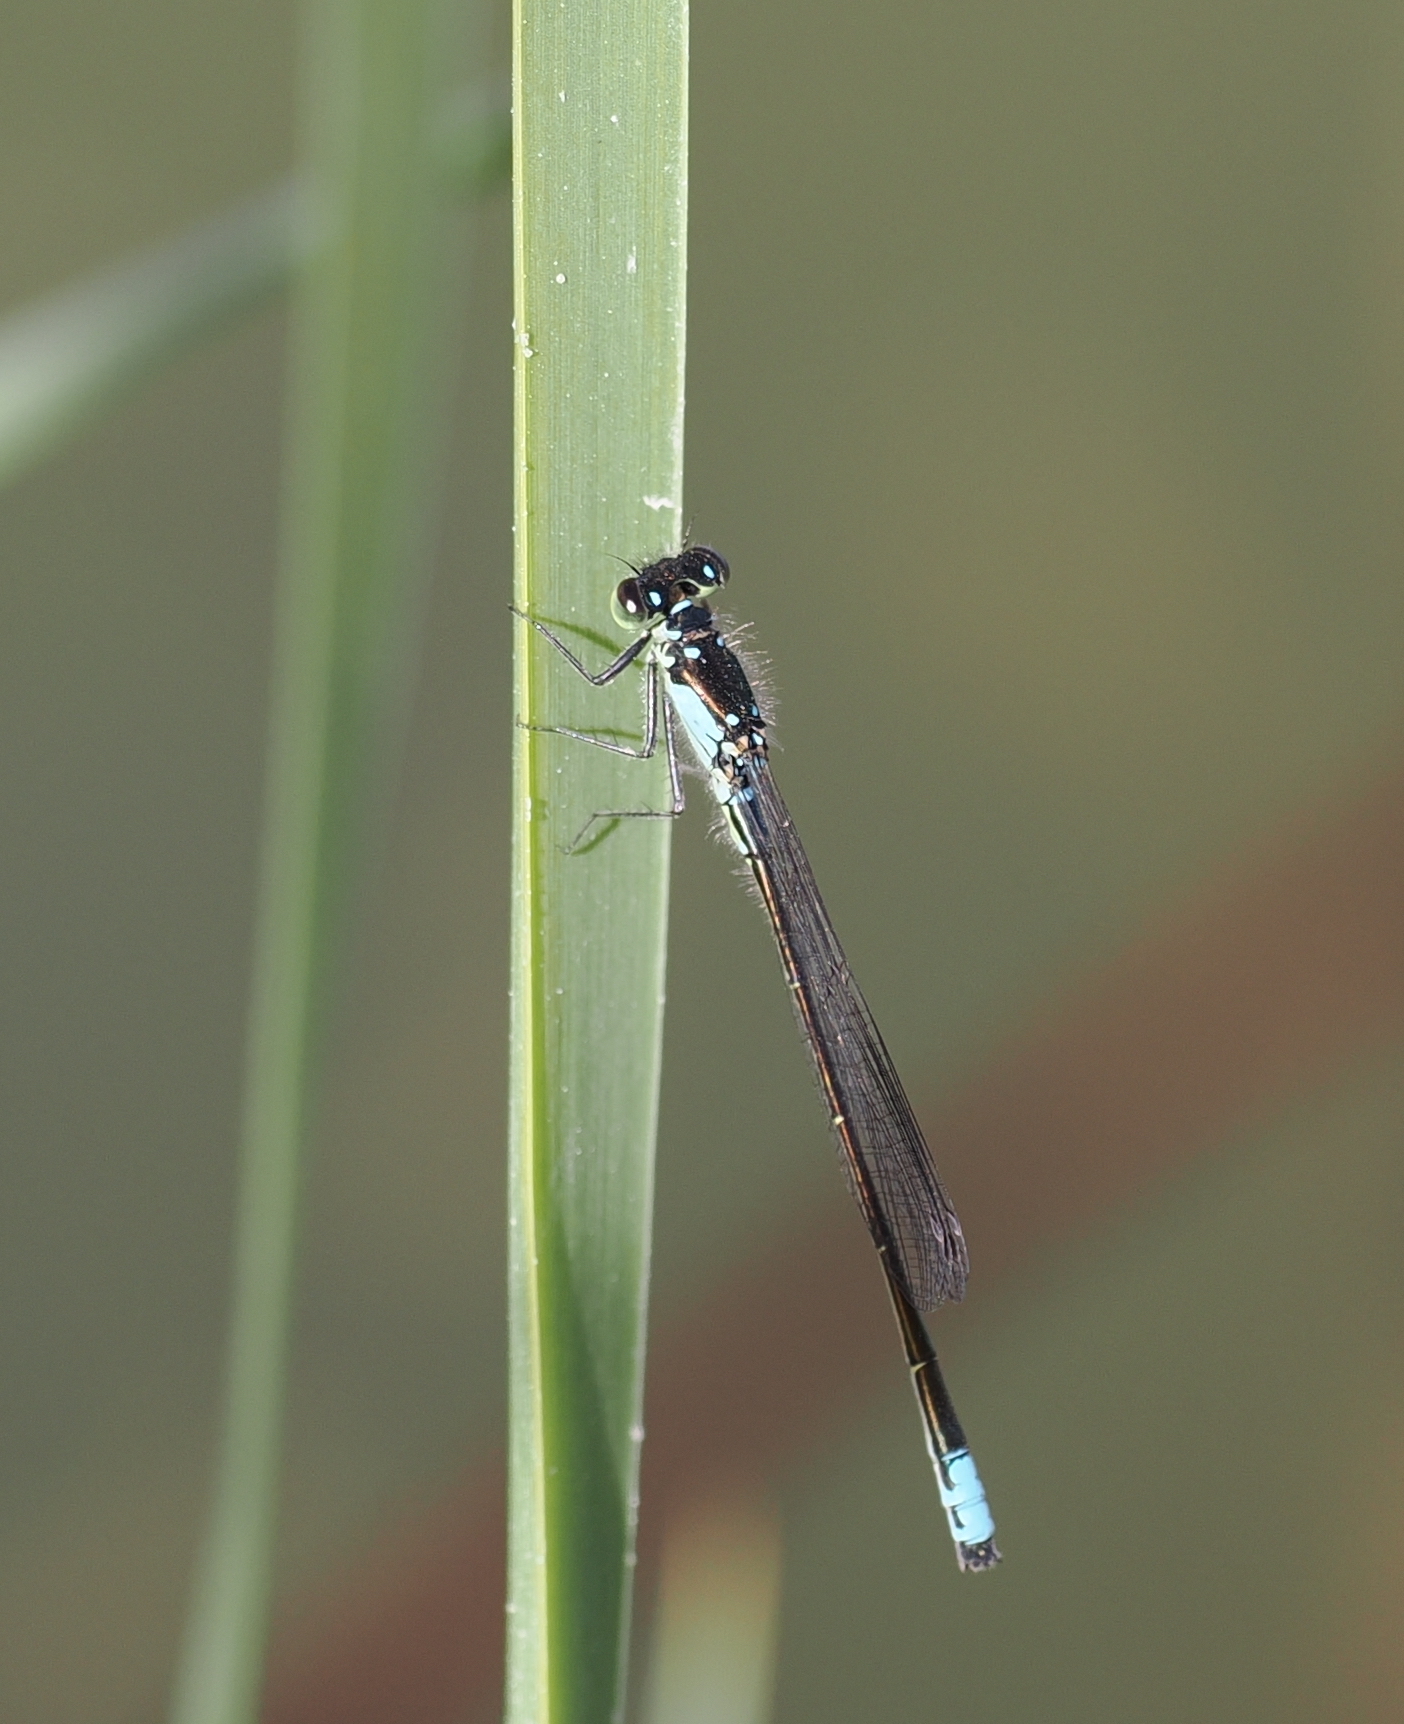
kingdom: Animalia
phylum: Arthropoda
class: Insecta
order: Odonata
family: Coenagrionidae
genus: Ischnura
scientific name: Ischnura cervula
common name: Pacific forktail
